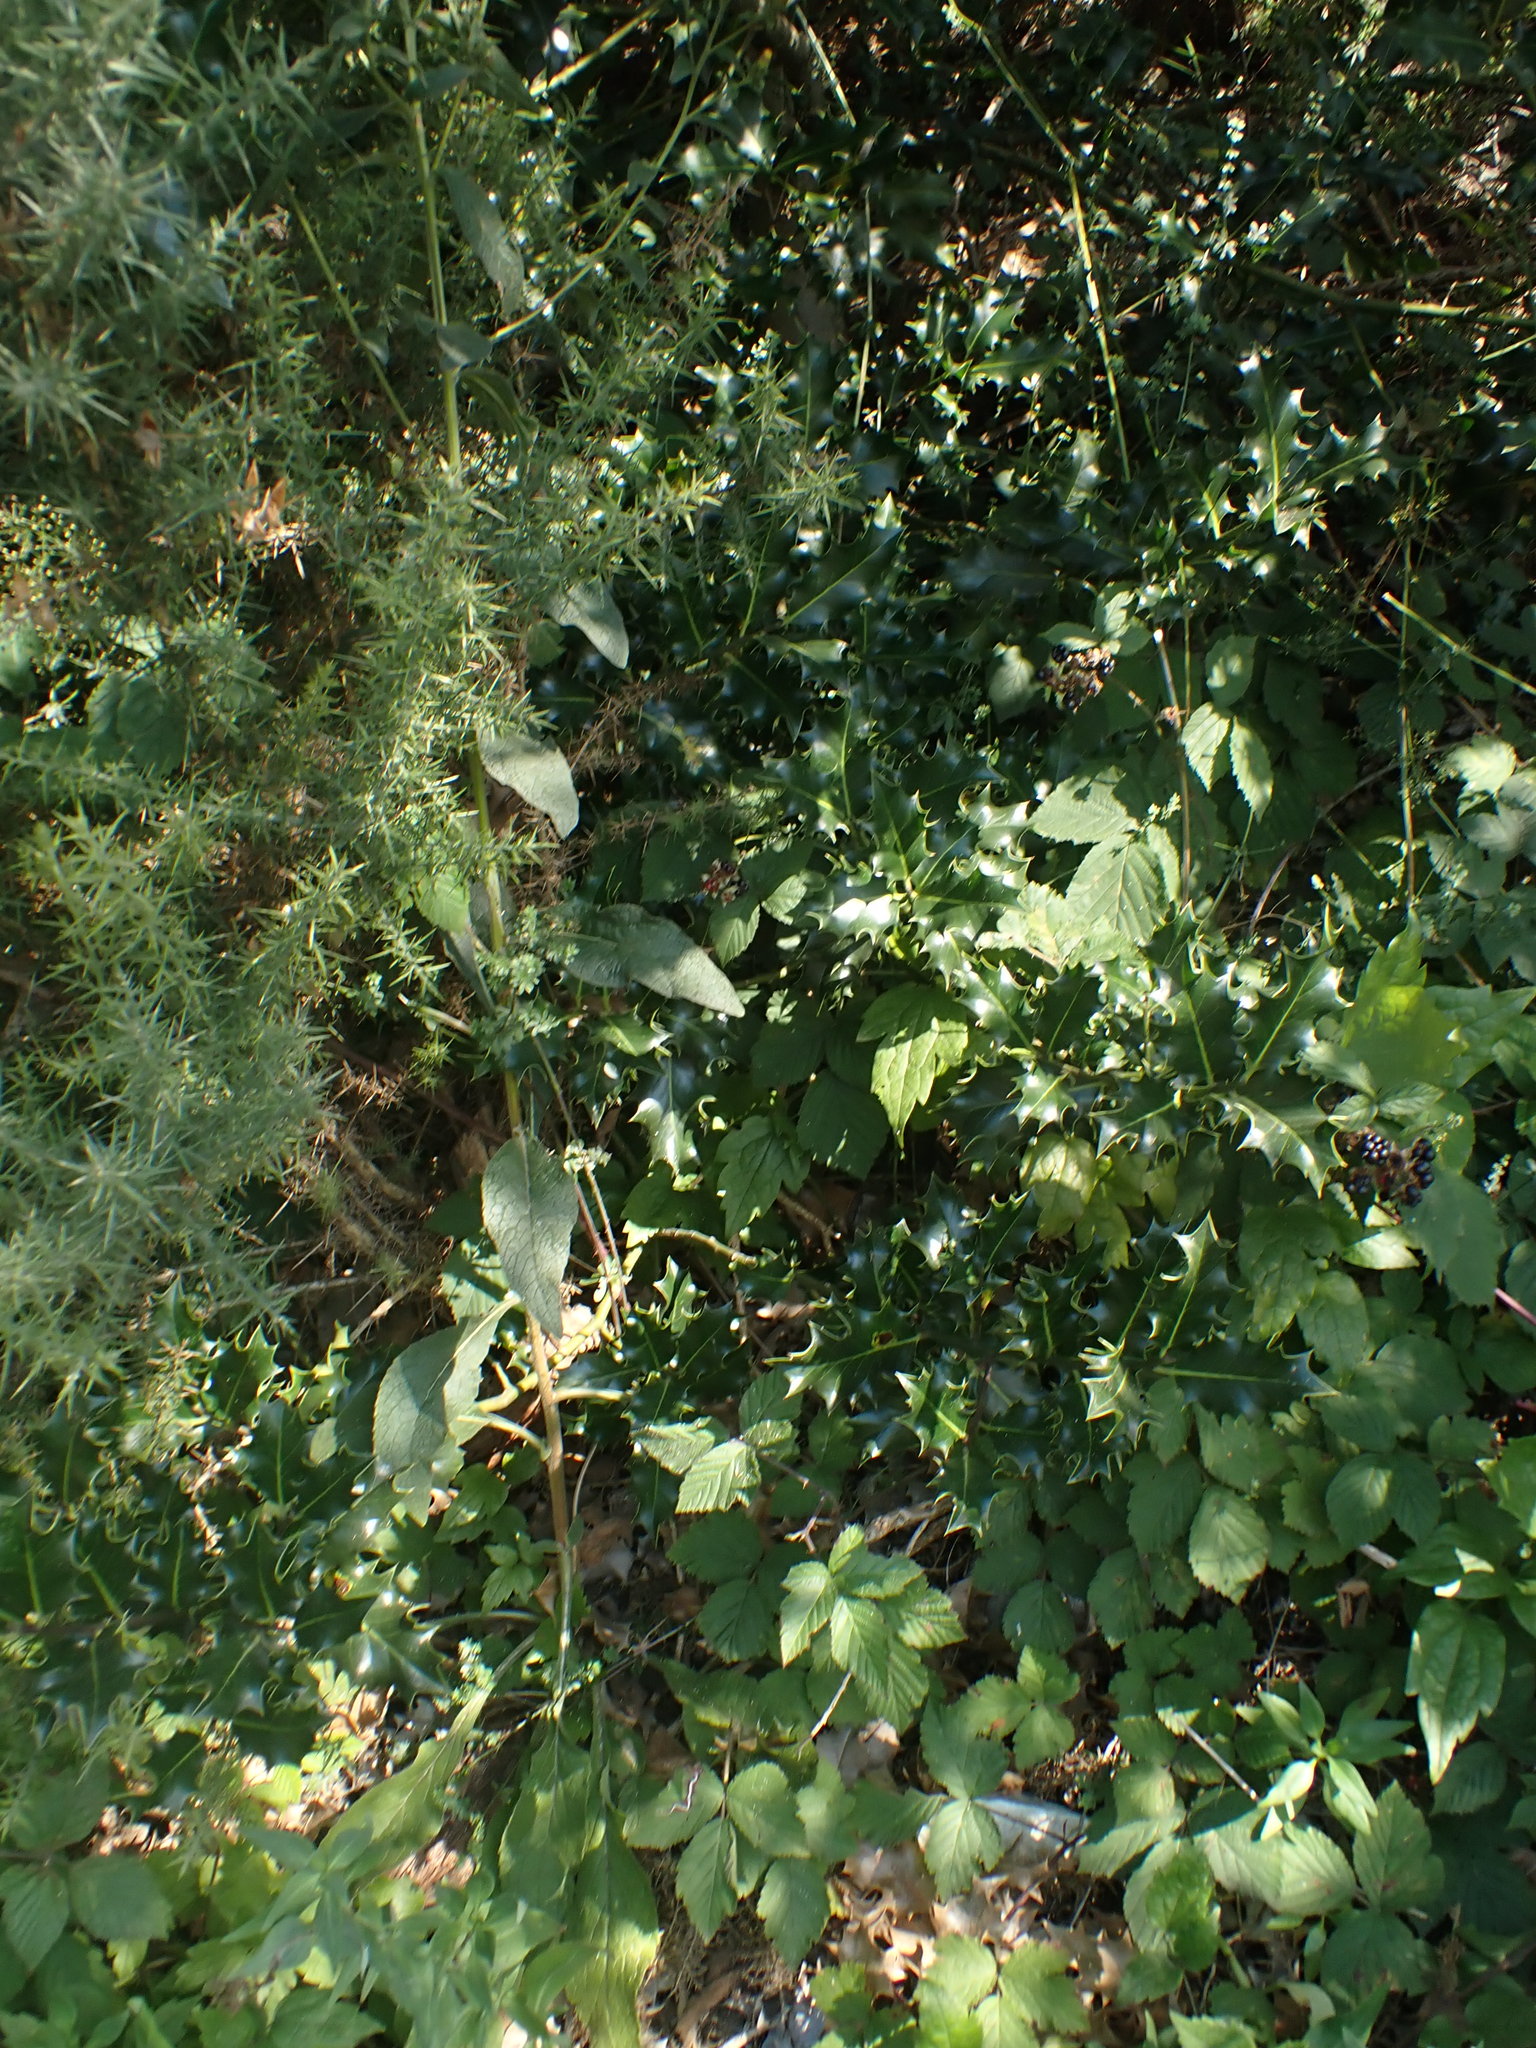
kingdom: Plantae
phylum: Tracheophyta
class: Magnoliopsida
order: Aquifoliales
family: Aquifoliaceae
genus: Ilex
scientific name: Ilex aquifolium
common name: English holly
